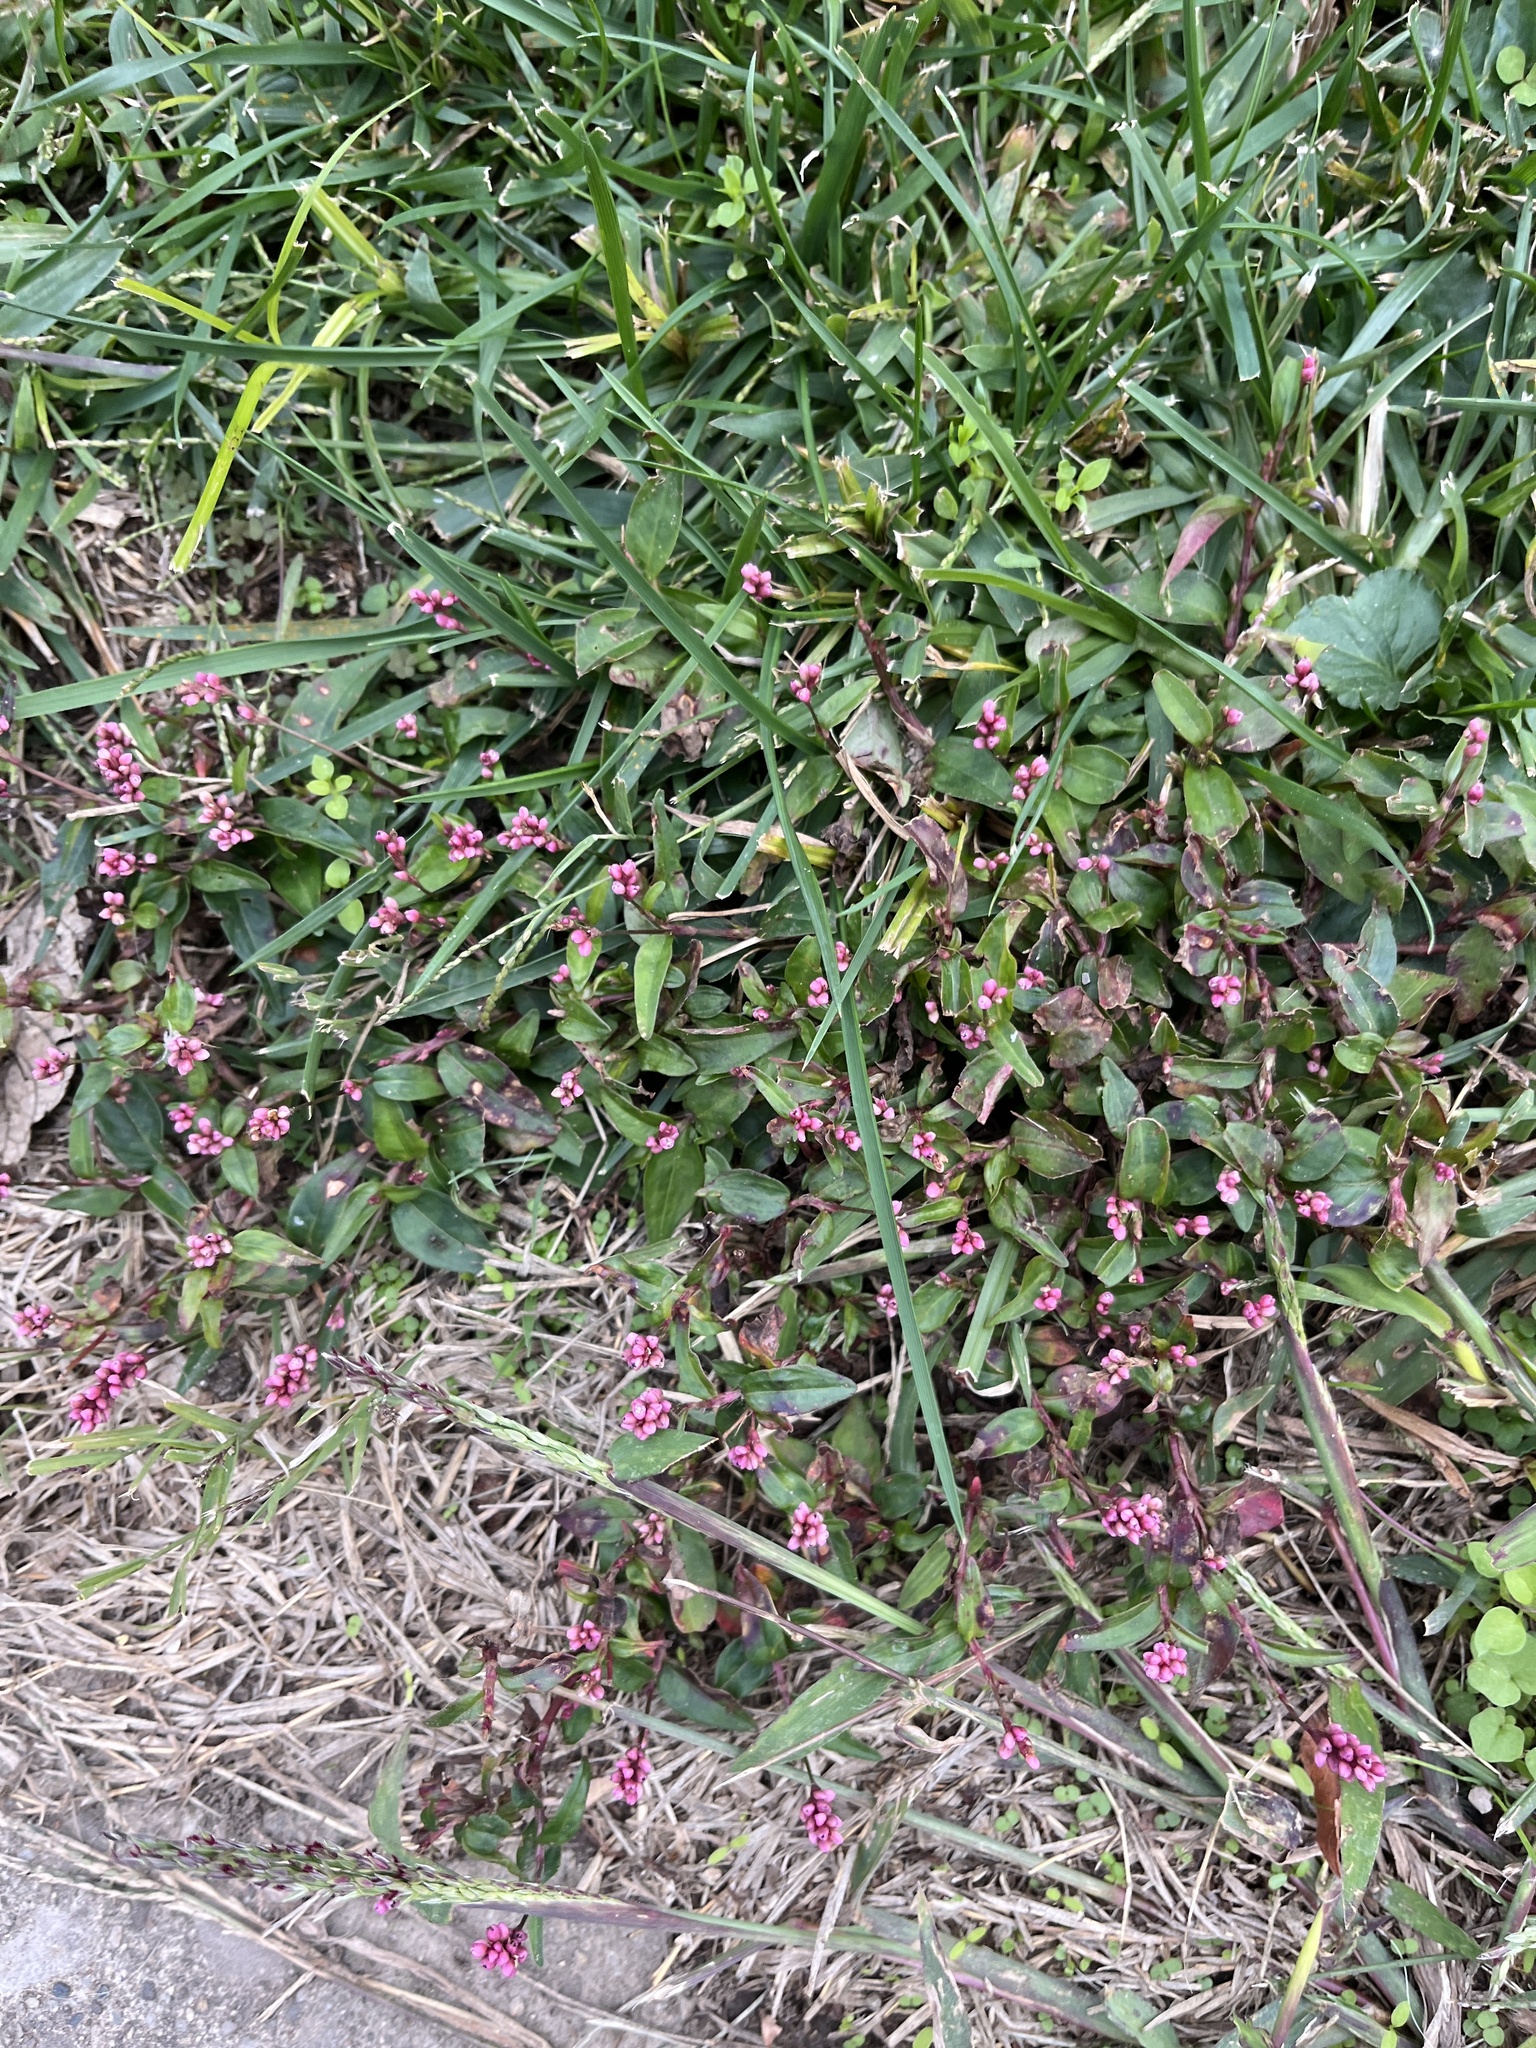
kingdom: Plantae
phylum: Tracheophyta
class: Magnoliopsida
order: Caryophyllales
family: Polygonaceae
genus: Persicaria
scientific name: Persicaria longiseta
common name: Bristly lady's-thumb
